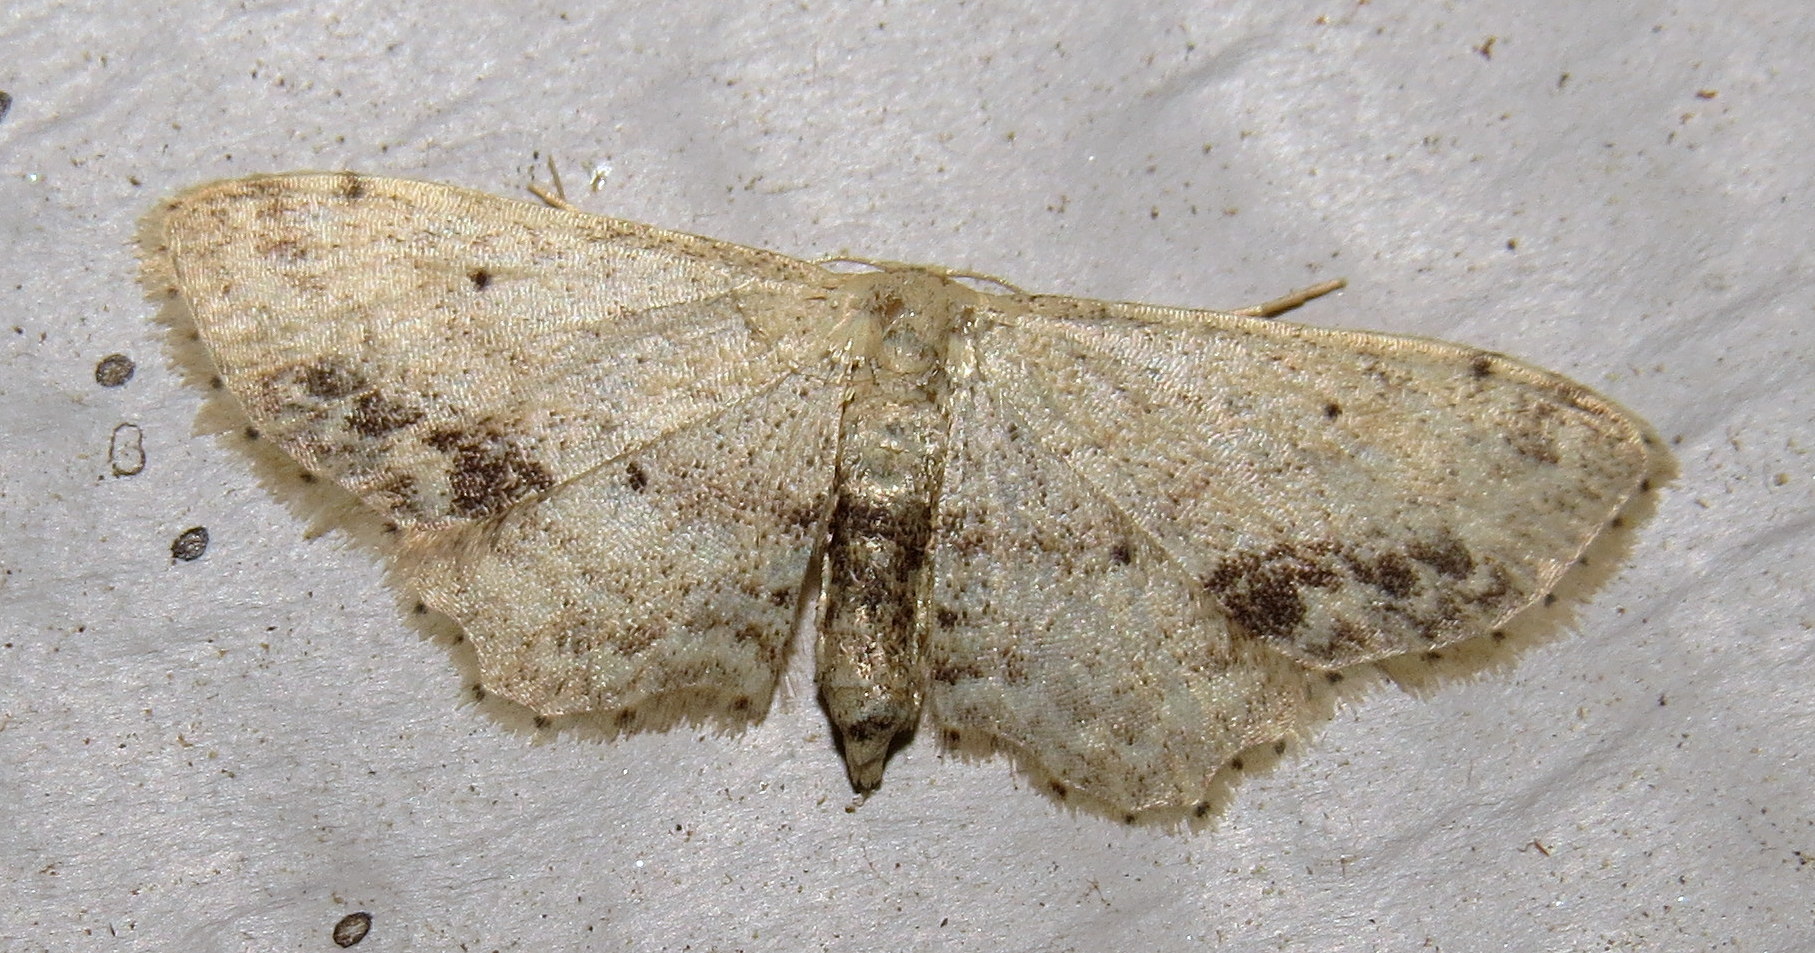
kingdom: Animalia
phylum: Arthropoda
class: Insecta
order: Lepidoptera
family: Geometridae
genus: Idaea
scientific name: Idaea dimidiata
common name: Single-dotted wave
